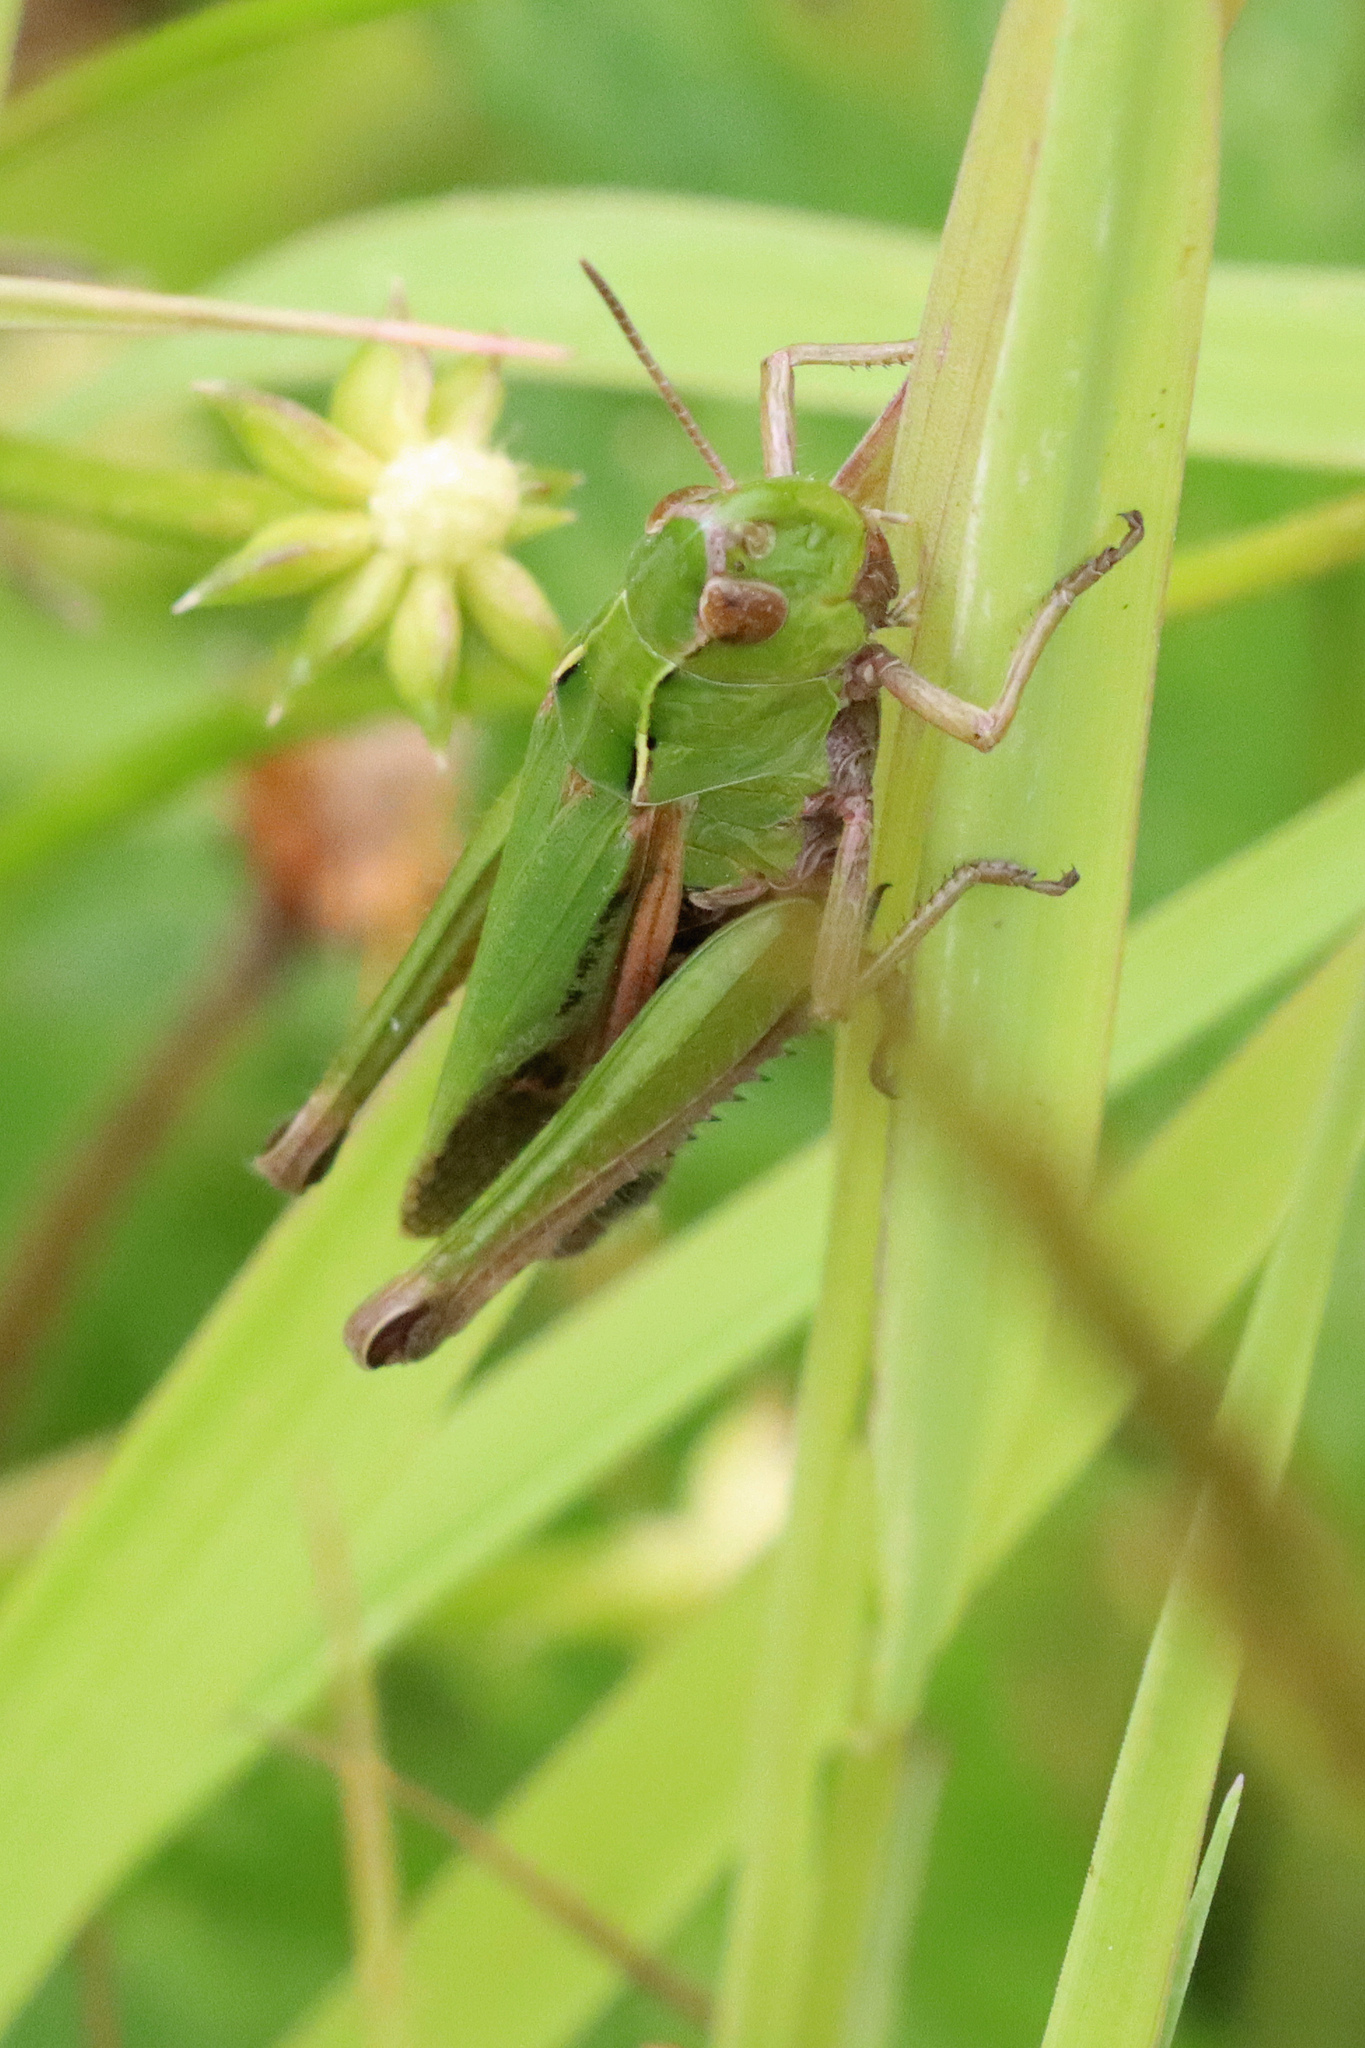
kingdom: Animalia
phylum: Arthropoda
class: Insecta
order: Orthoptera
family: Acrididae
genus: Omocestus
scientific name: Omocestus viridulus
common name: Common green grasshopper
